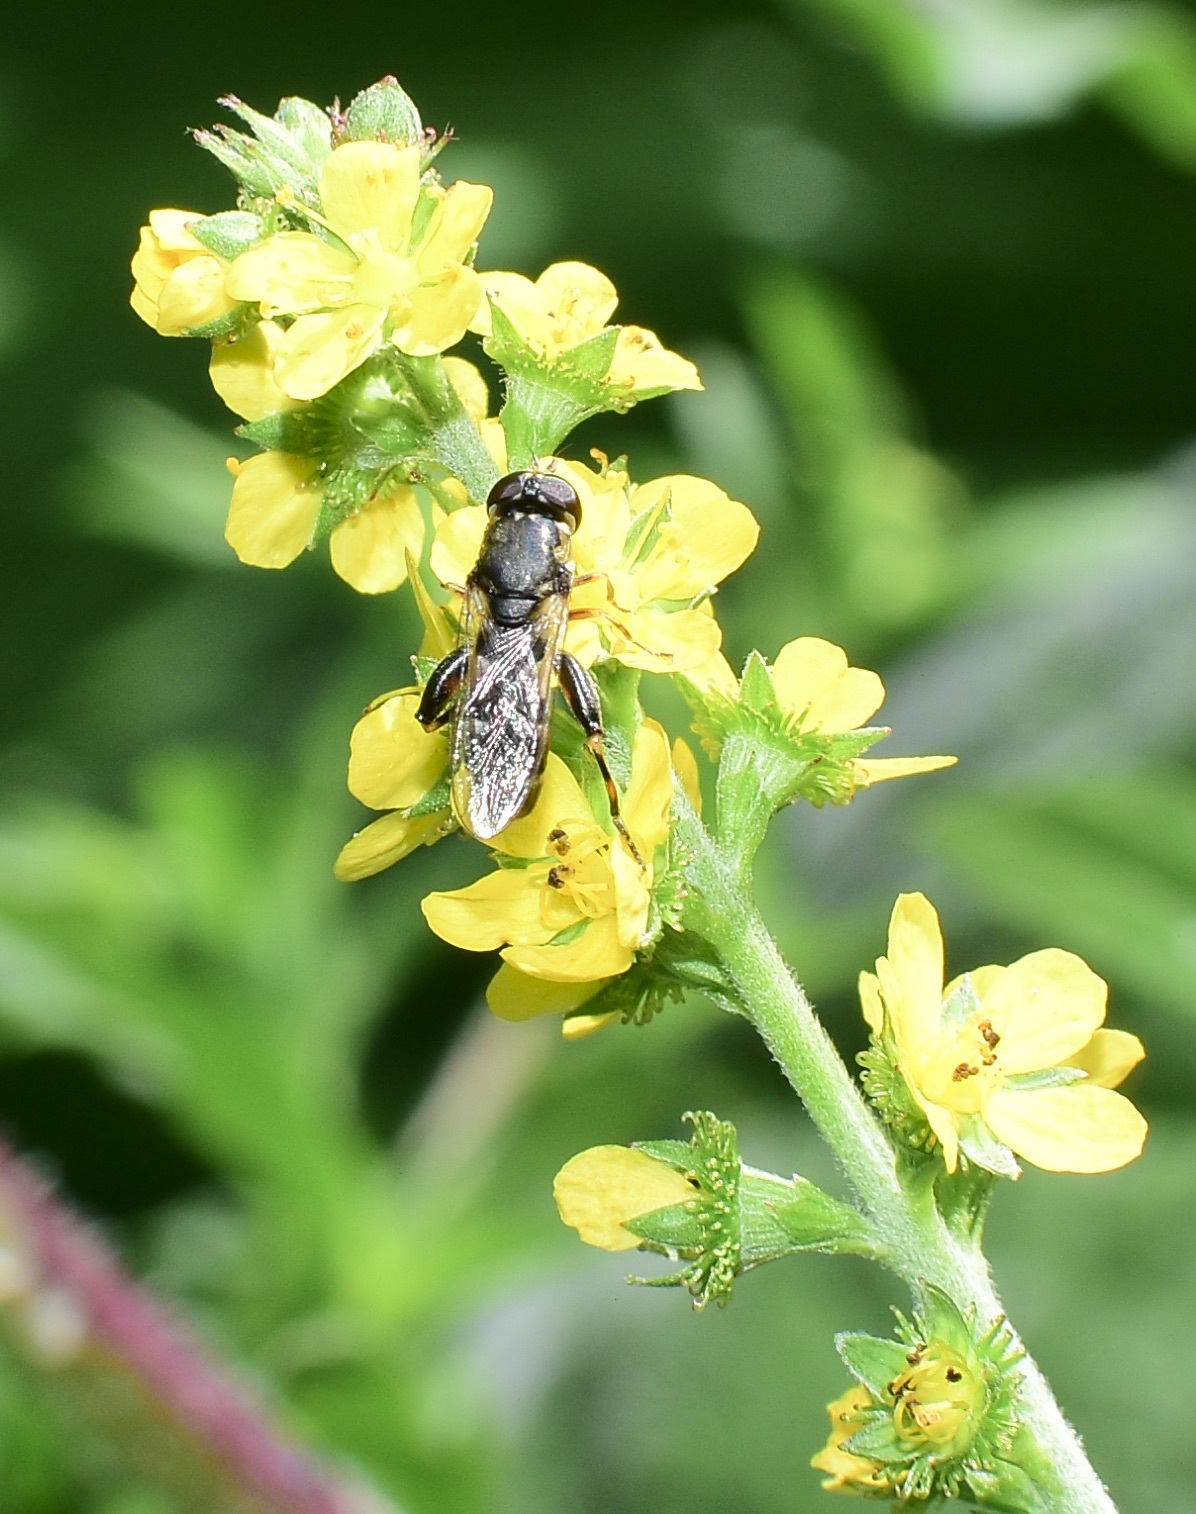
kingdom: Animalia
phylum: Arthropoda
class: Insecta
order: Diptera
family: Syrphidae
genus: Syritta
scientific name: Syritta pipiens
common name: Hover fly
